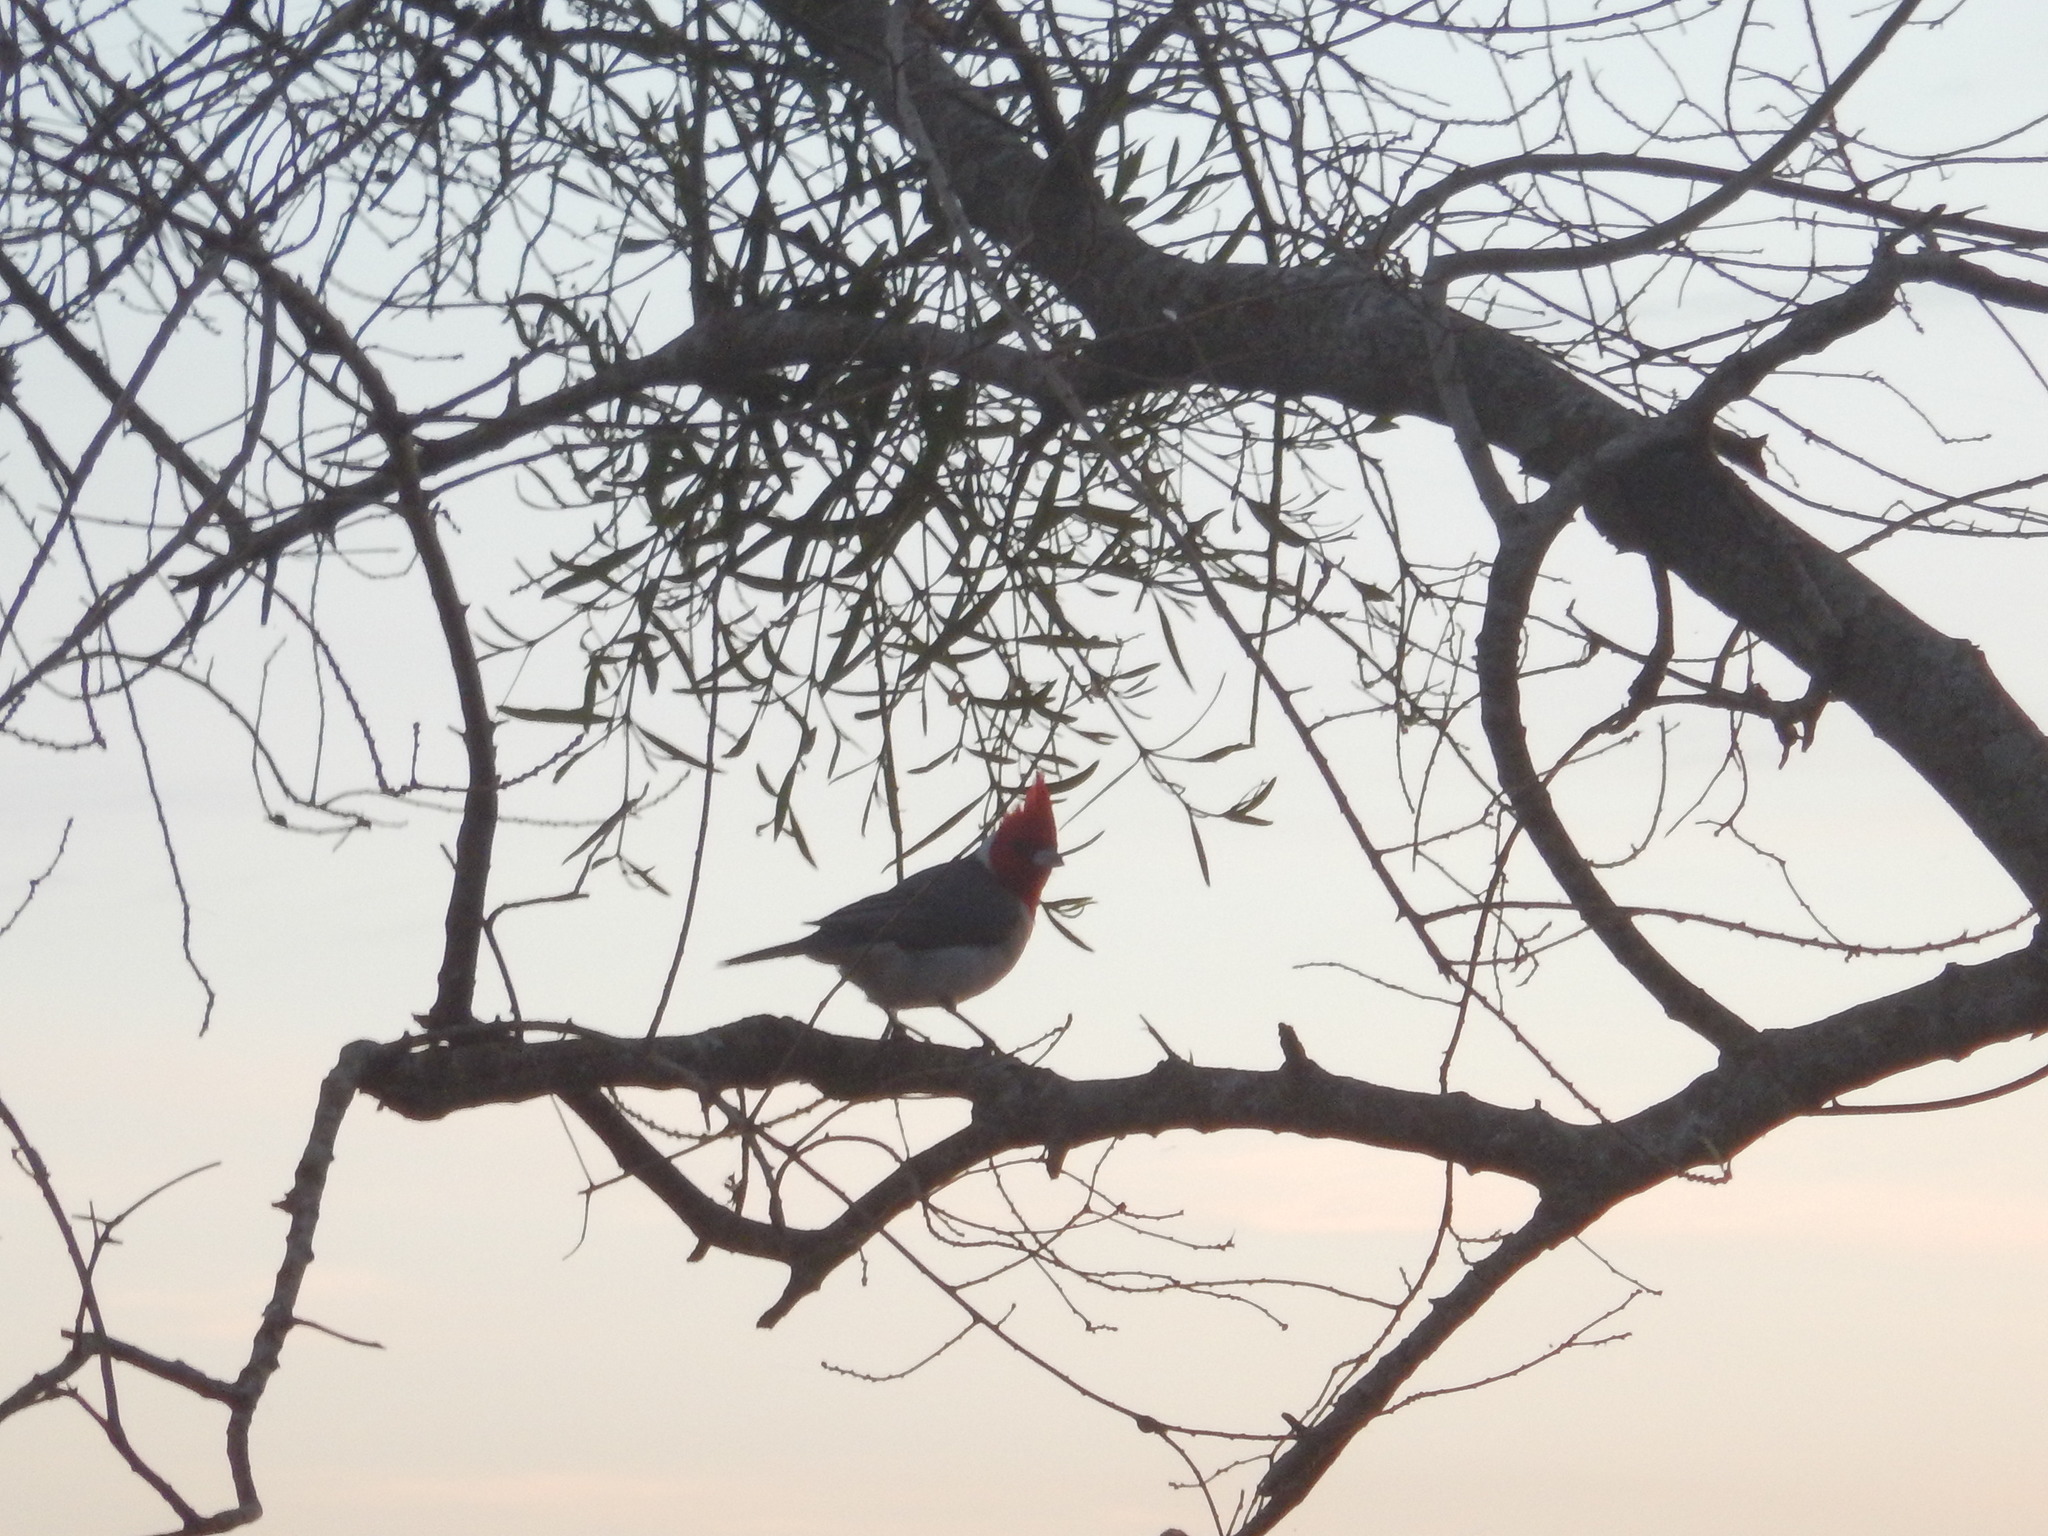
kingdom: Animalia
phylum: Chordata
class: Aves
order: Passeriformes
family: Thraupidae
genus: Paroaria
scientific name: Paroaria coronata
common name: Red-crested cardinal
